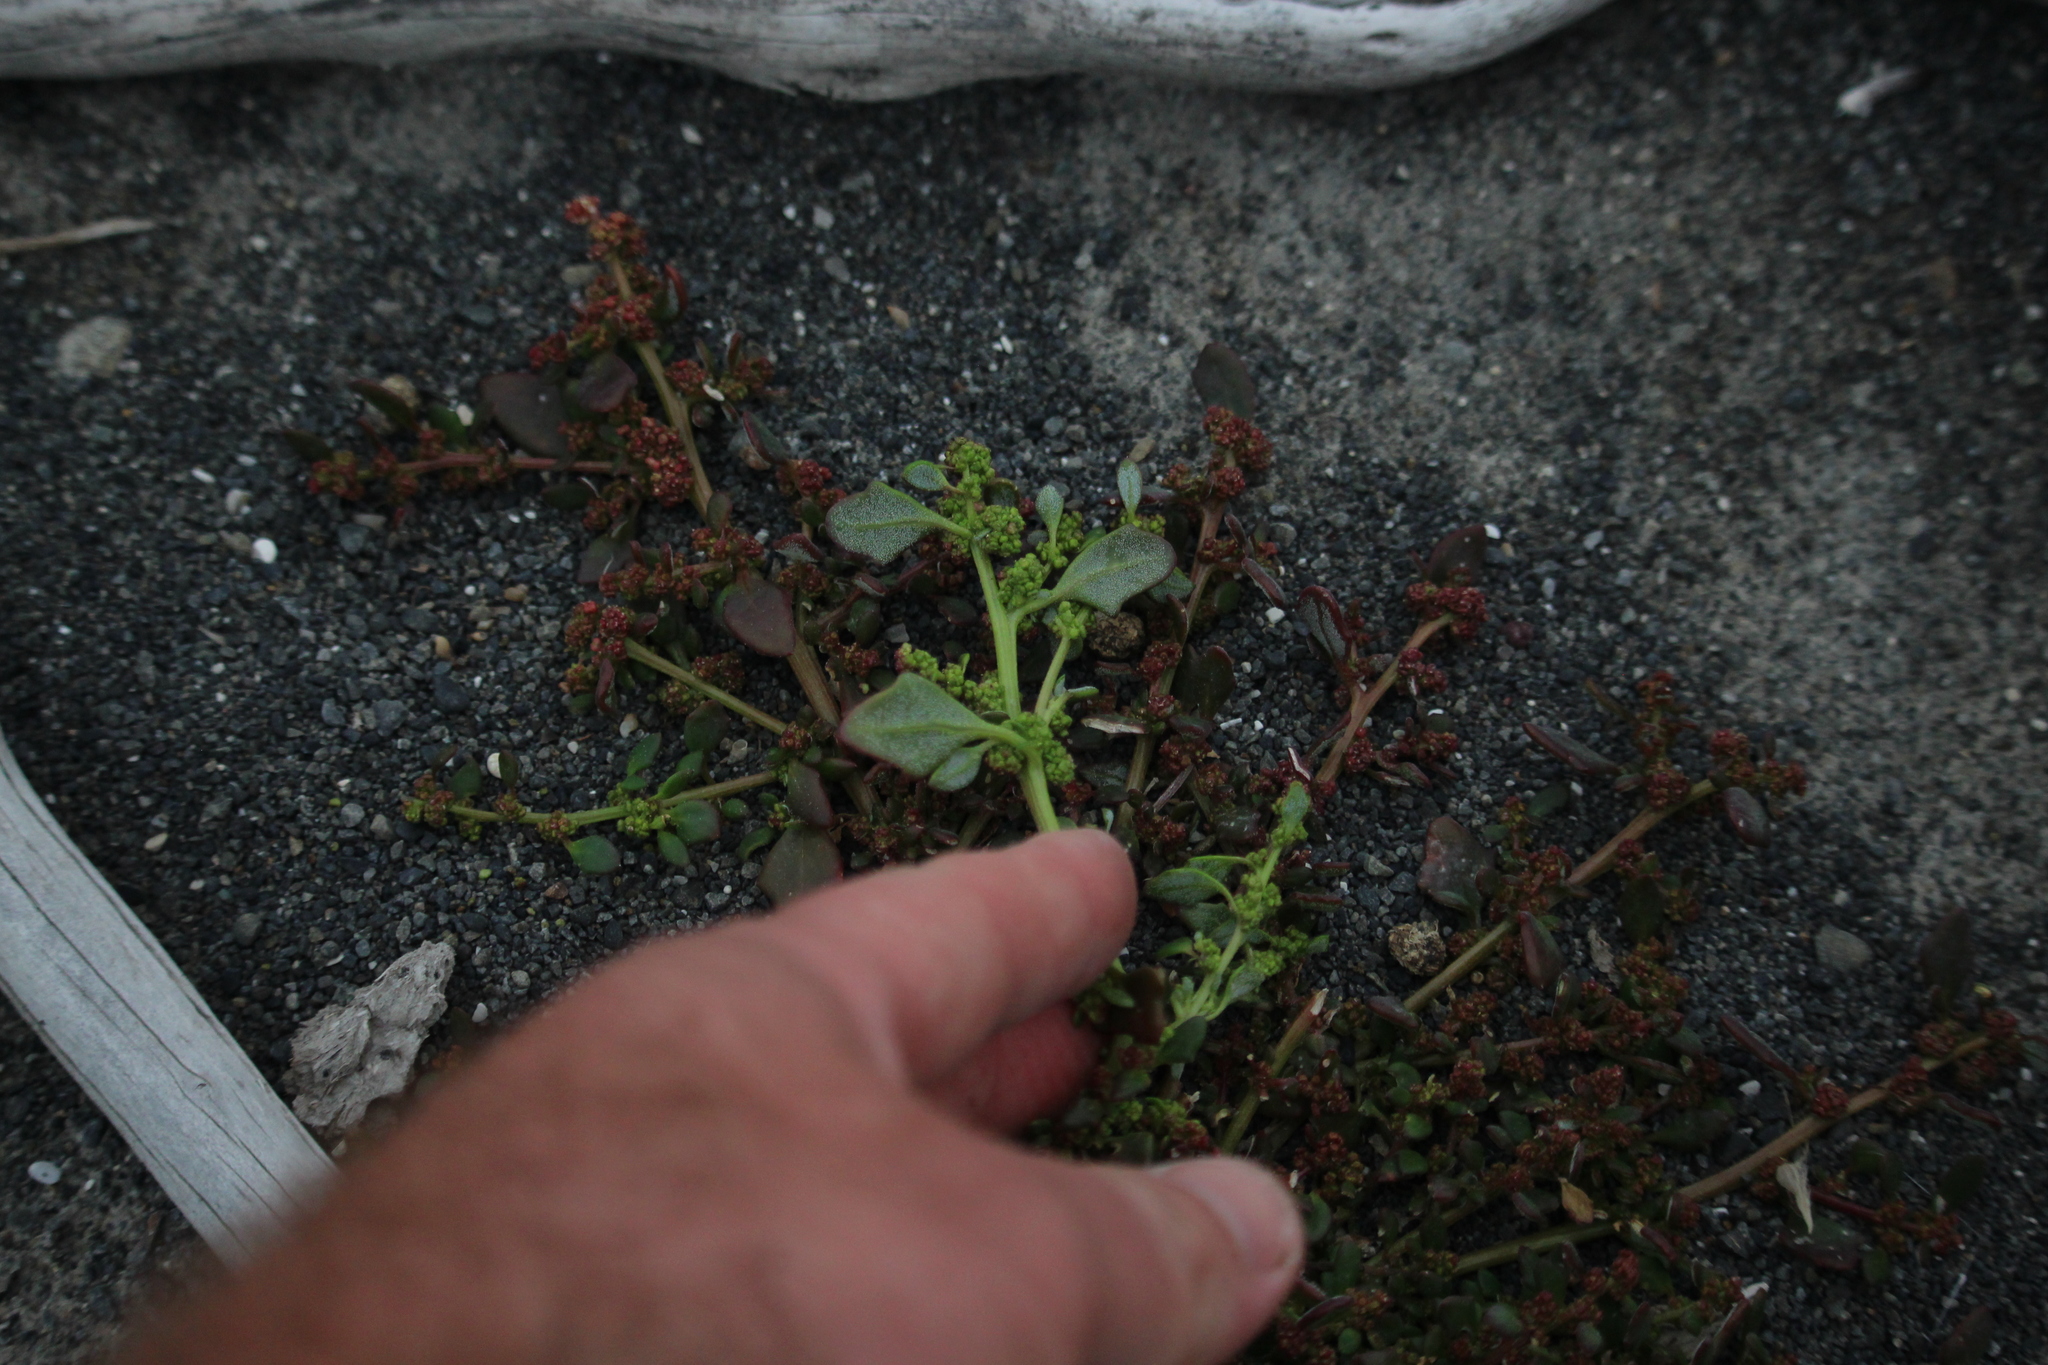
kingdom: Plantae
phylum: Tracheophyta
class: Magnoliopsida
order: Caryophyllales
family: Amaranthaceae
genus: Oxybasis
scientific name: Oxybasis ambigua
